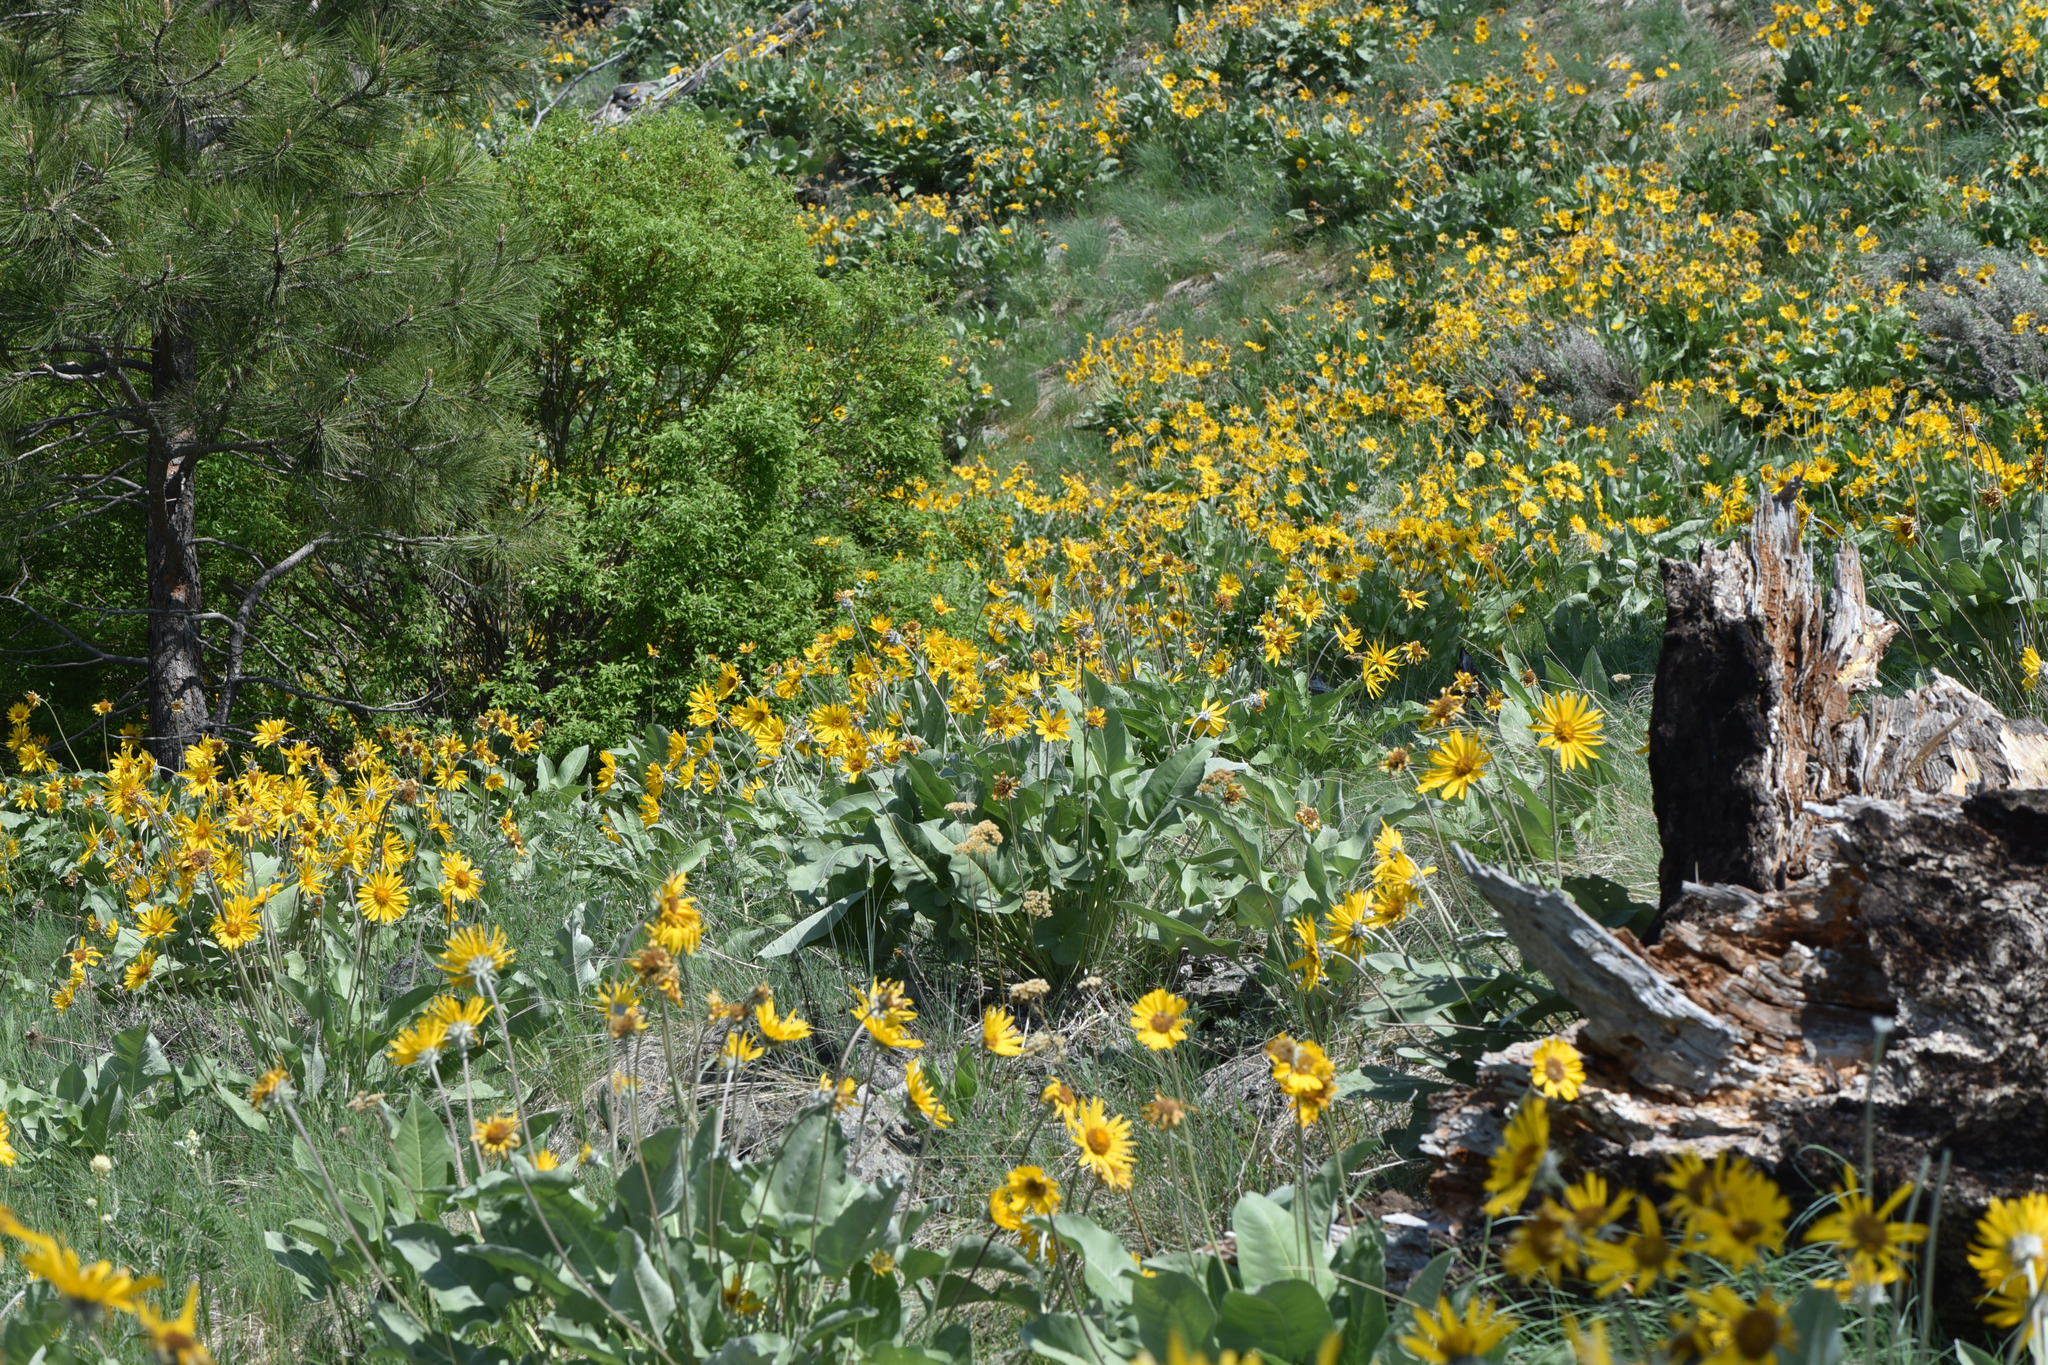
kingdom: Plantae
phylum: Tracheophyta
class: Magnoliopsida
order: Asterales
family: Asteraceae
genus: Wyethia
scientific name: Wyethia sagittata
